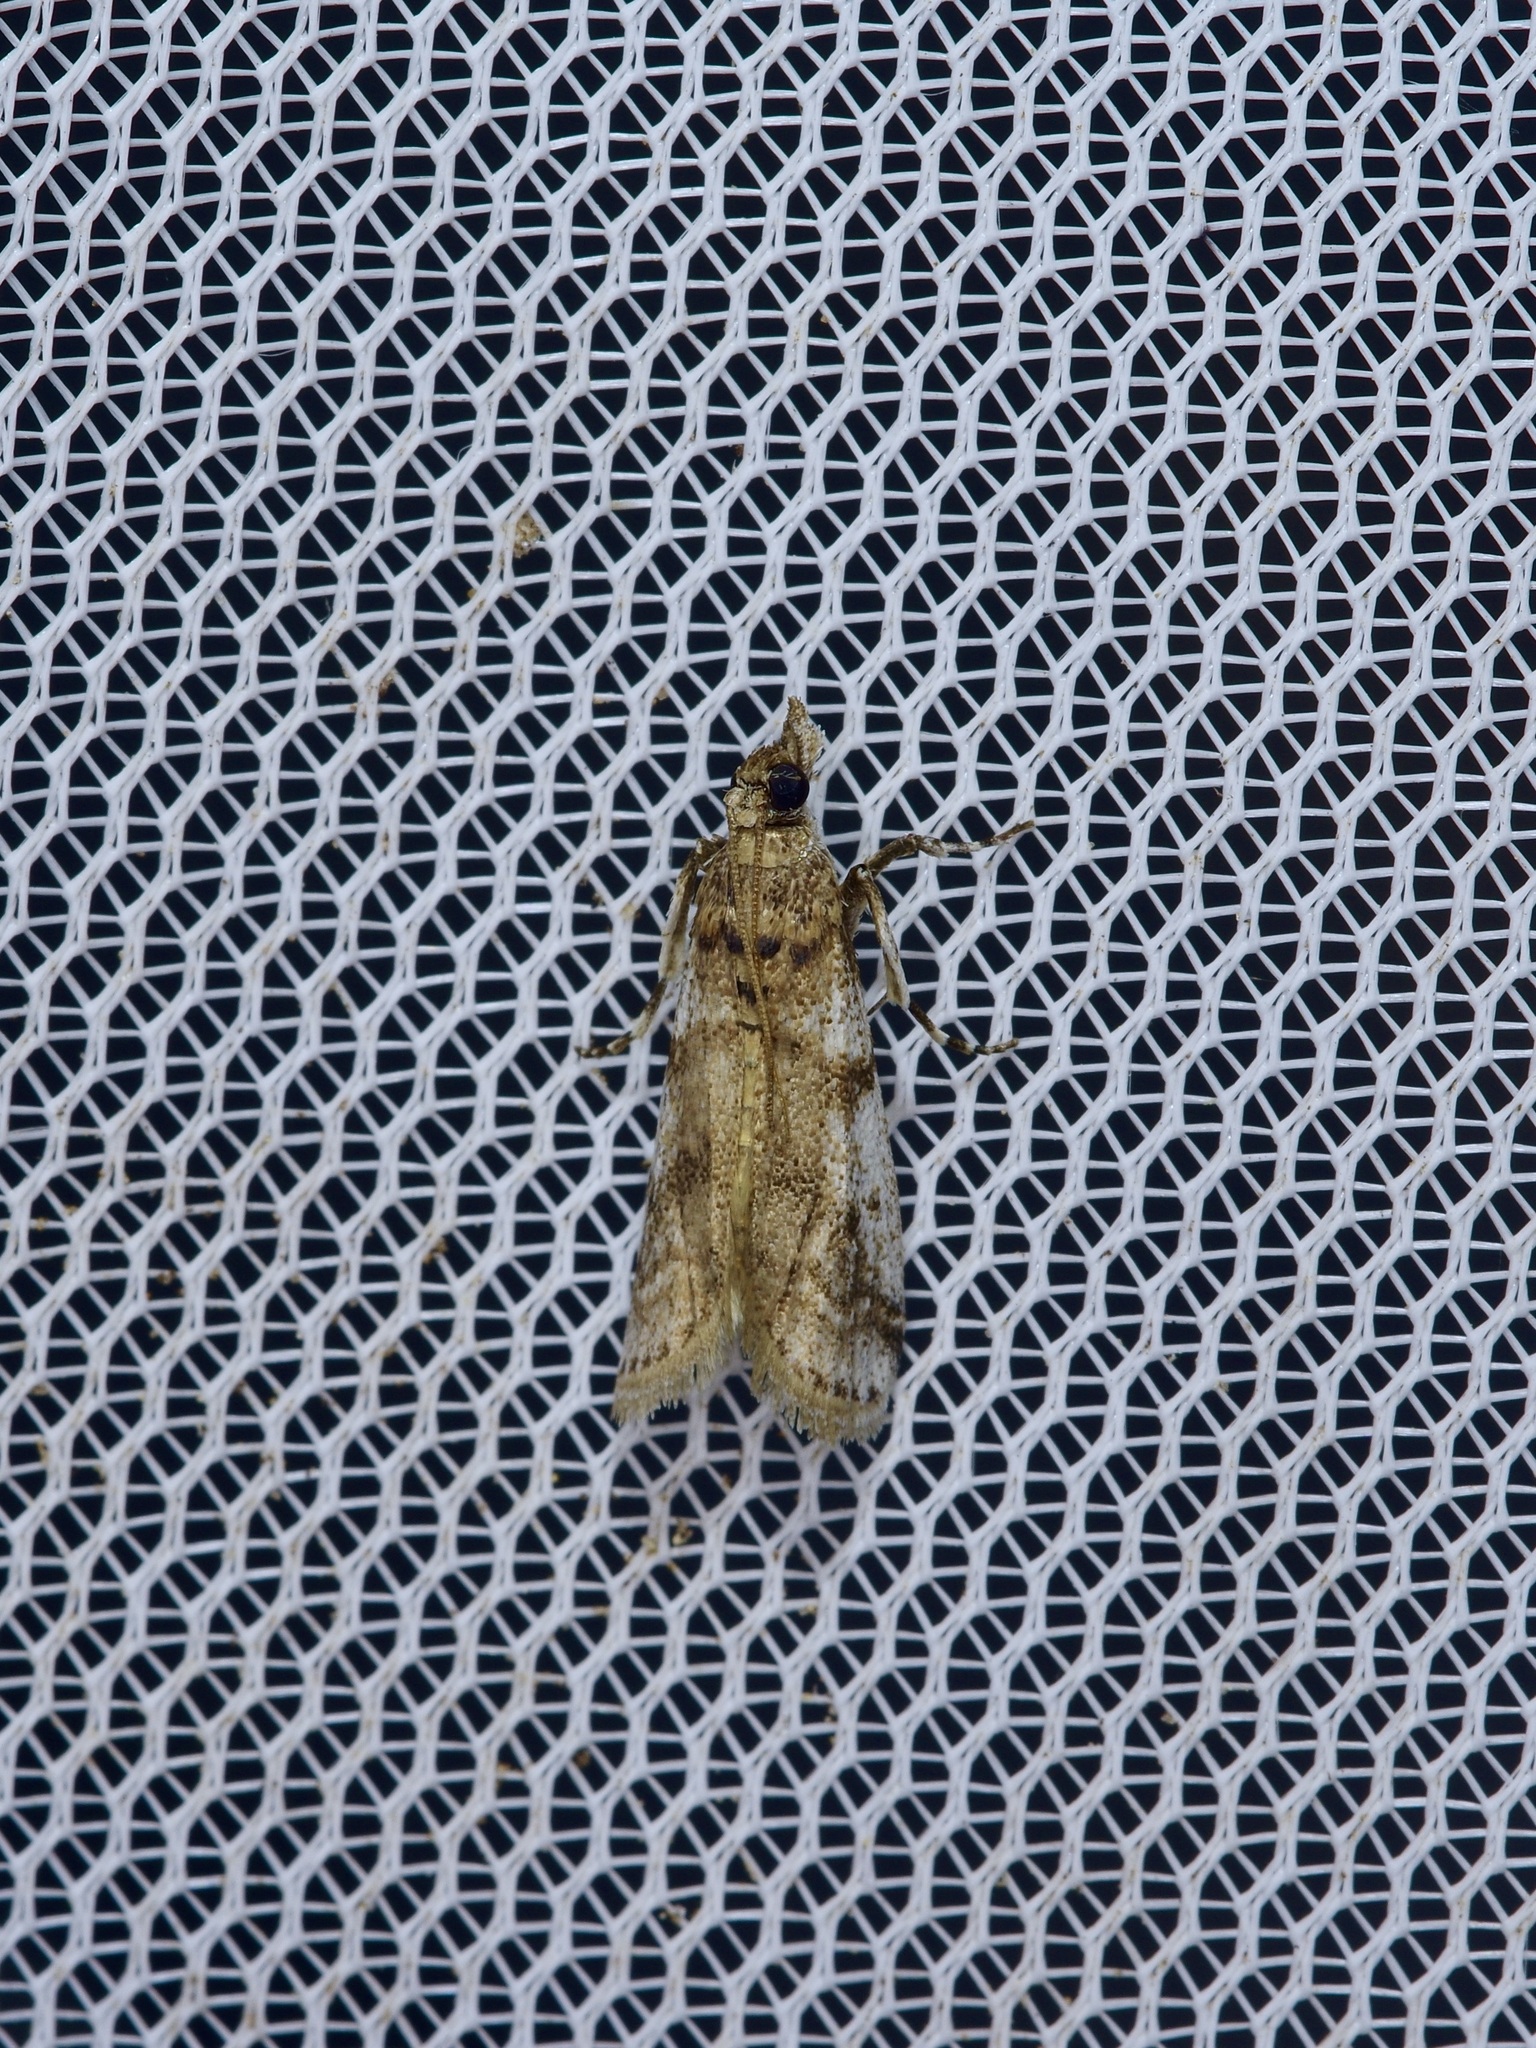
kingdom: Animalia
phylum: Arthropoda
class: Insecta
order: Lepidoptera
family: Pyralidae
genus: Laetilia
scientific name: Laetilia coccidivora
